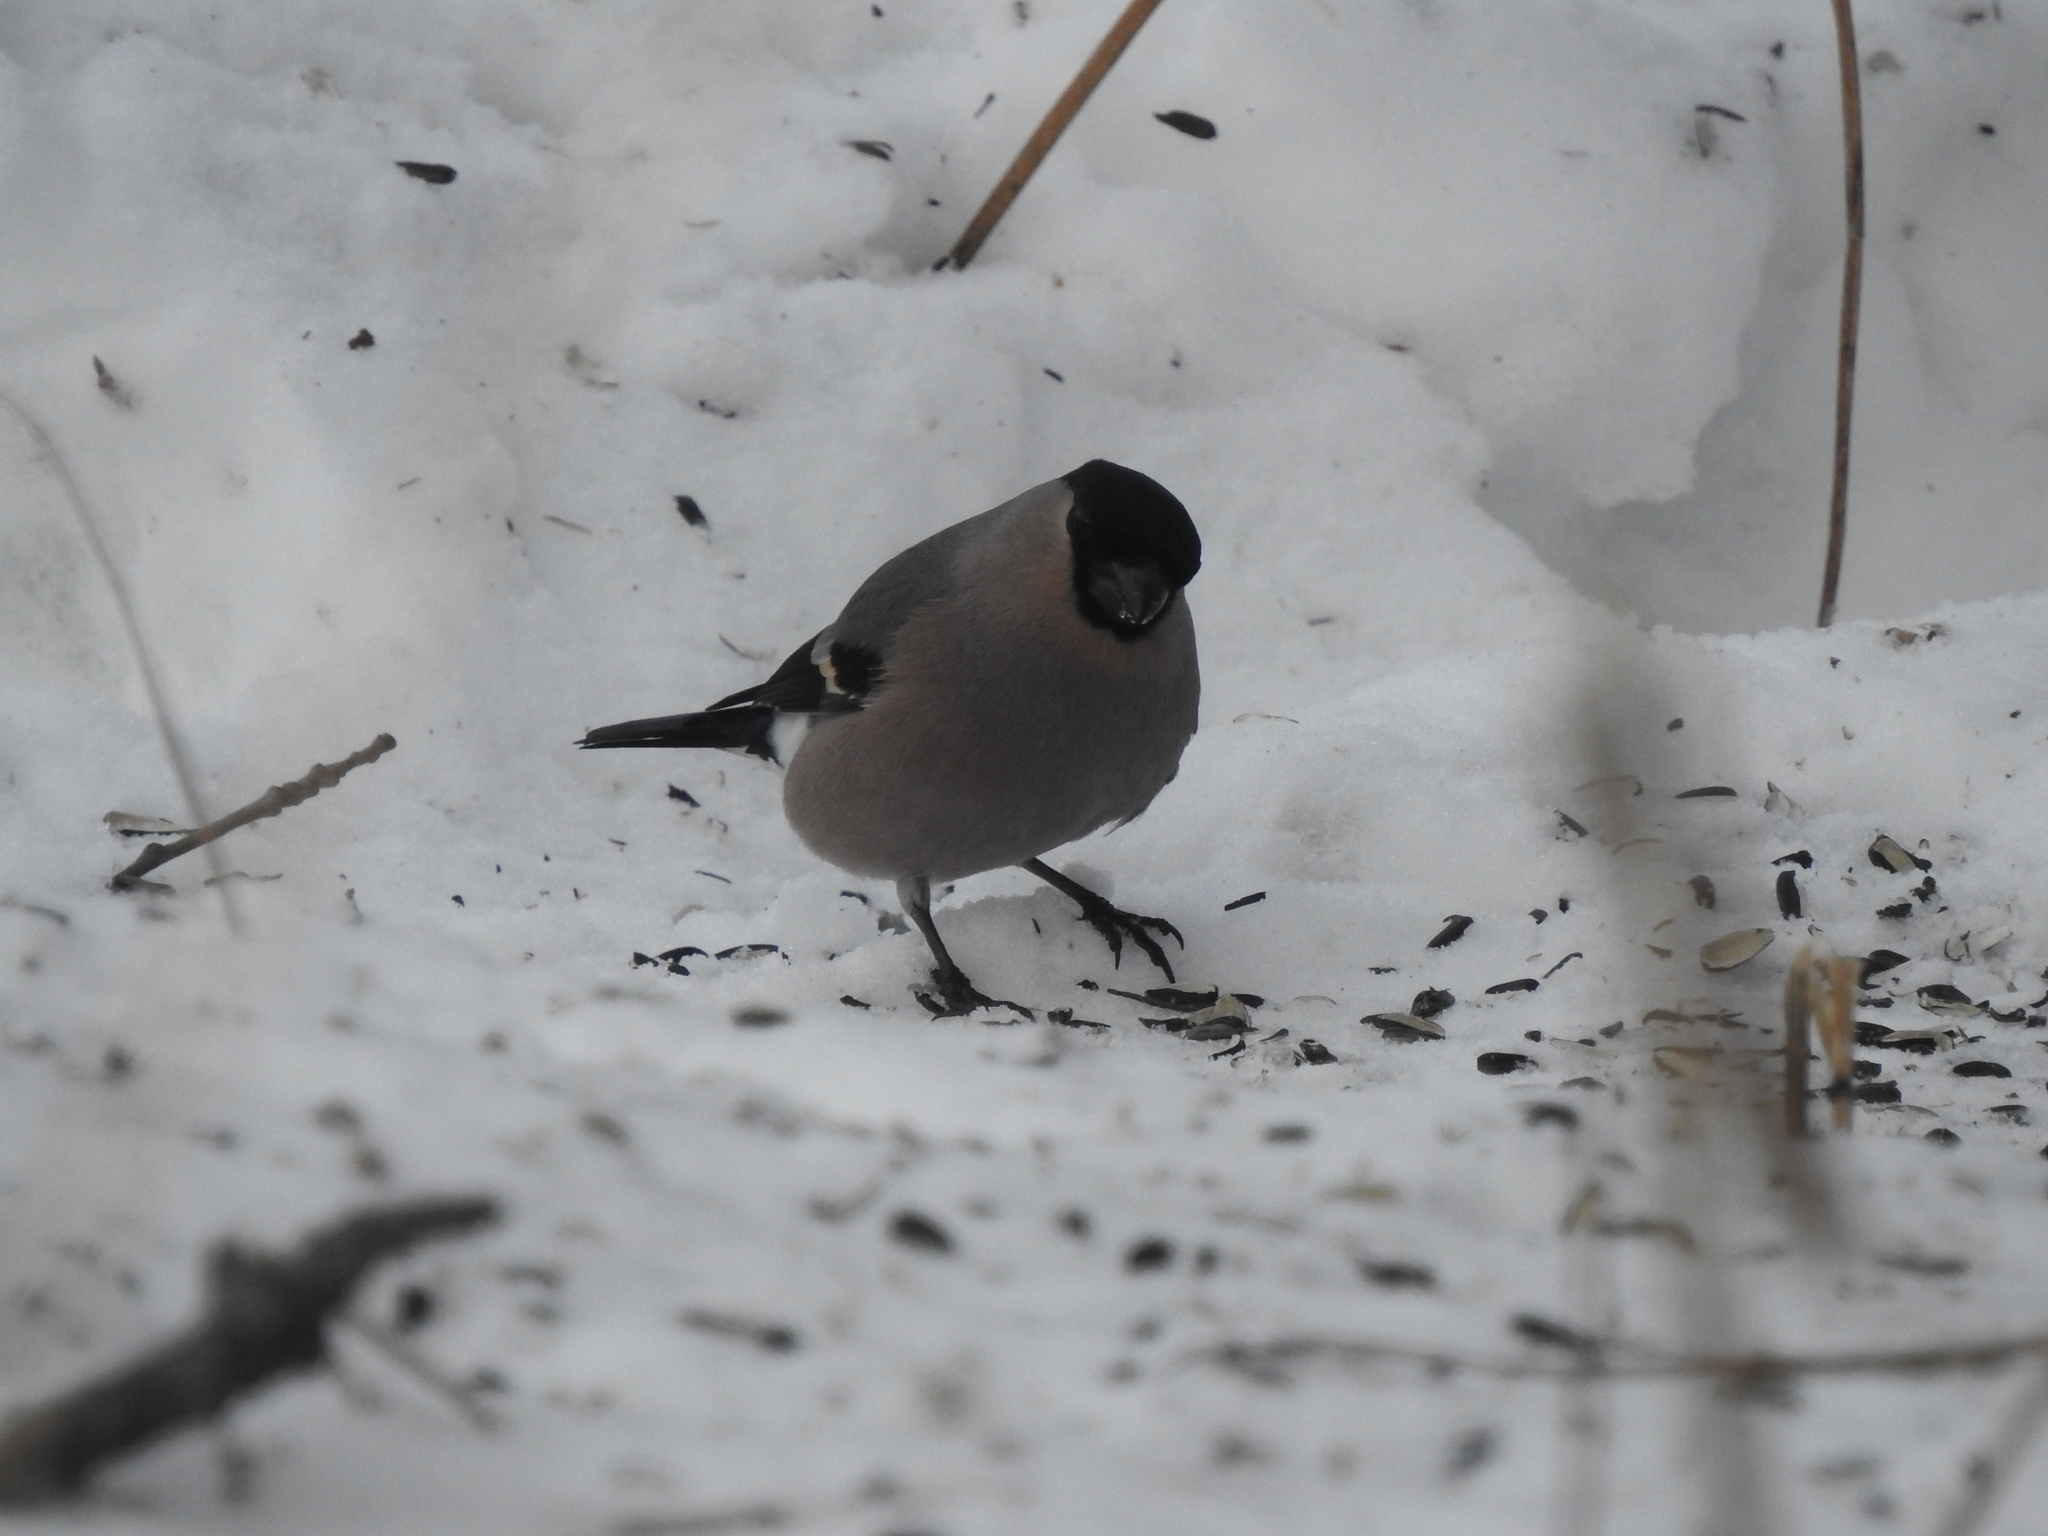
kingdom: Animalia
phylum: Chordata
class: Aves
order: Passeriformes
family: Fringillidae
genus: Pyrrhula
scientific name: Pyrrhula pyrrhula
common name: Eurasian bullfinch
